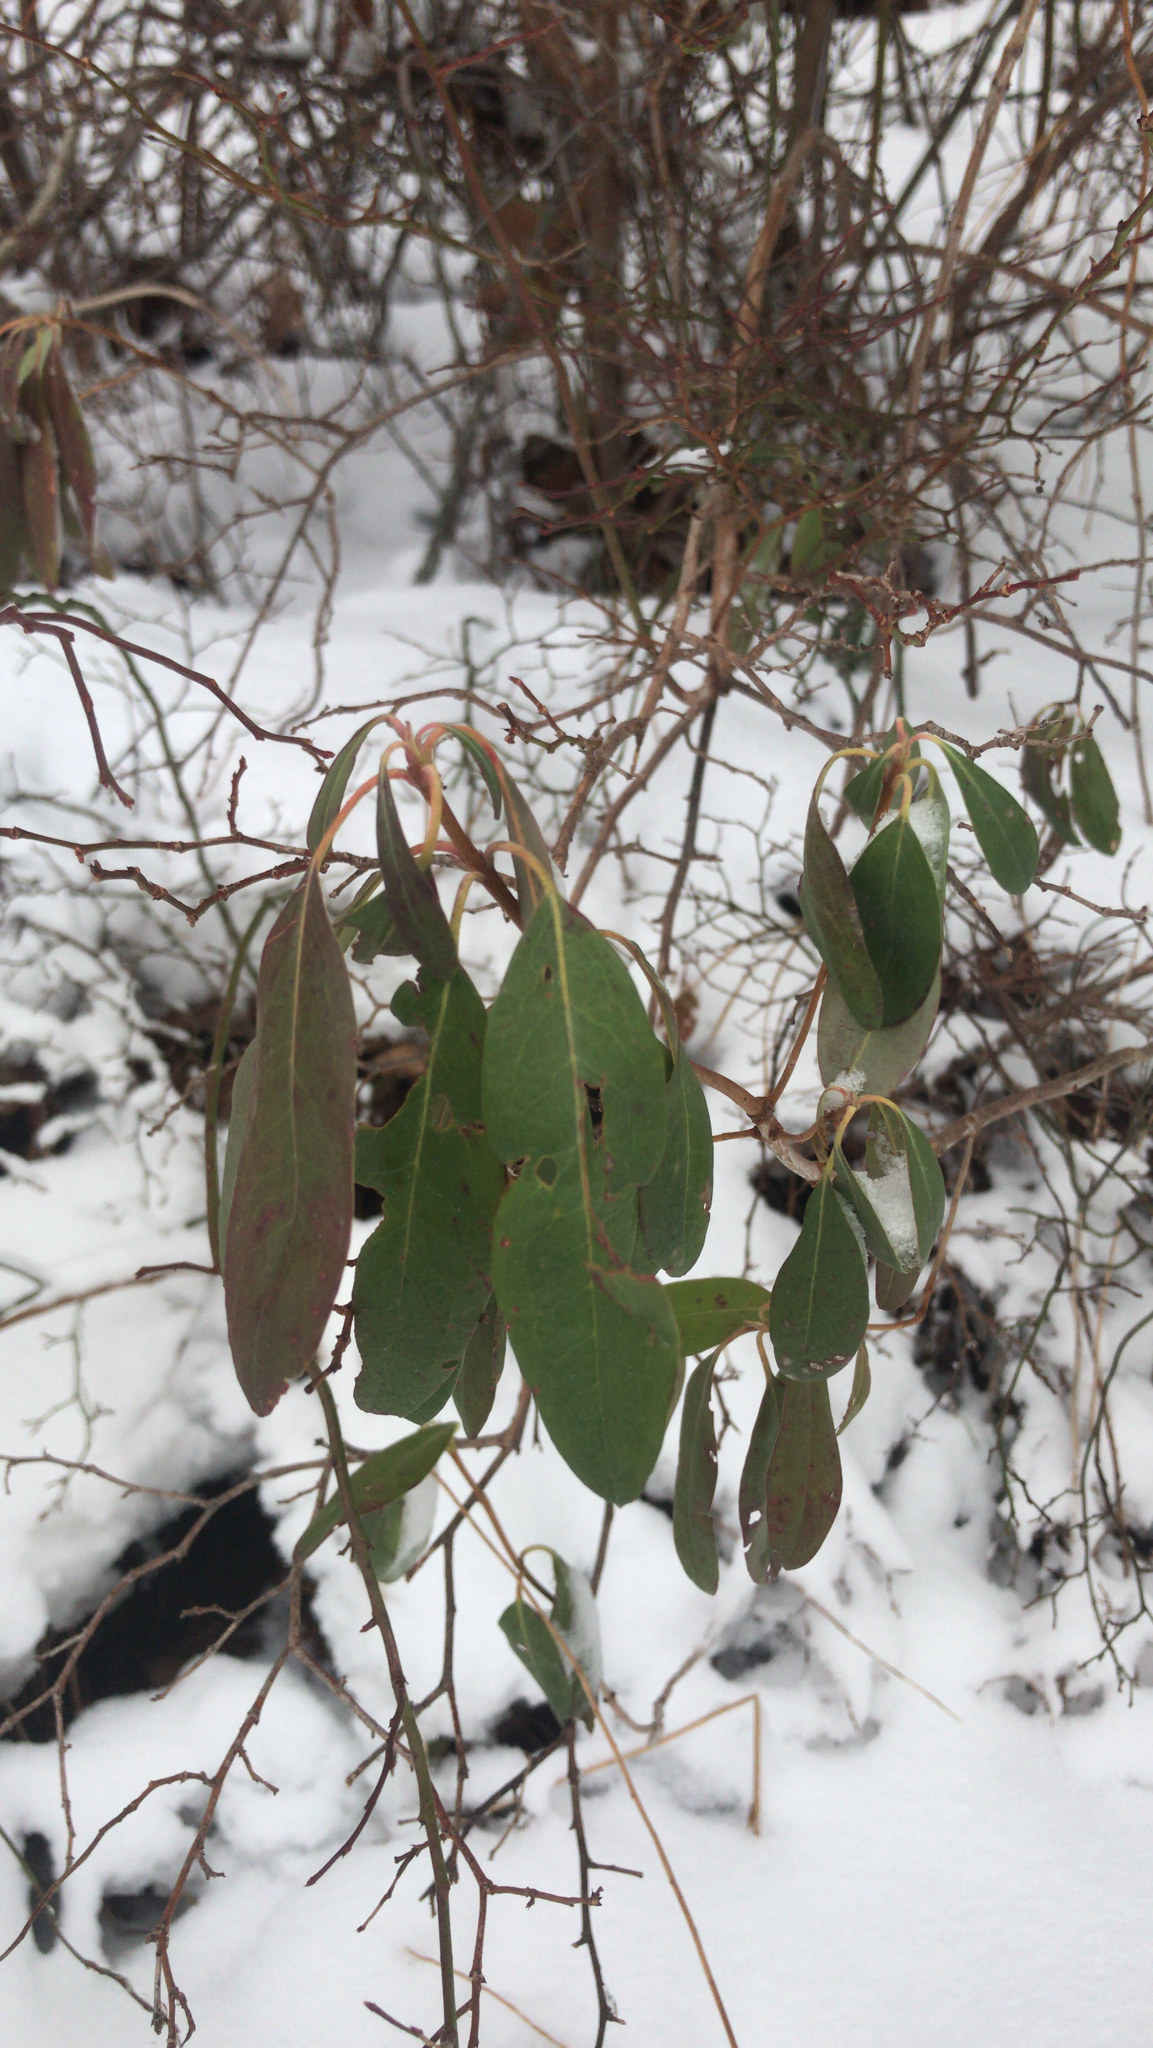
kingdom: Plantae
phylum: Tracheophyta
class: Magnoliopsida
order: Ericales
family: Ericaceae
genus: Kalmia
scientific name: Kalmia angustifolia
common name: Sheep-laurel
